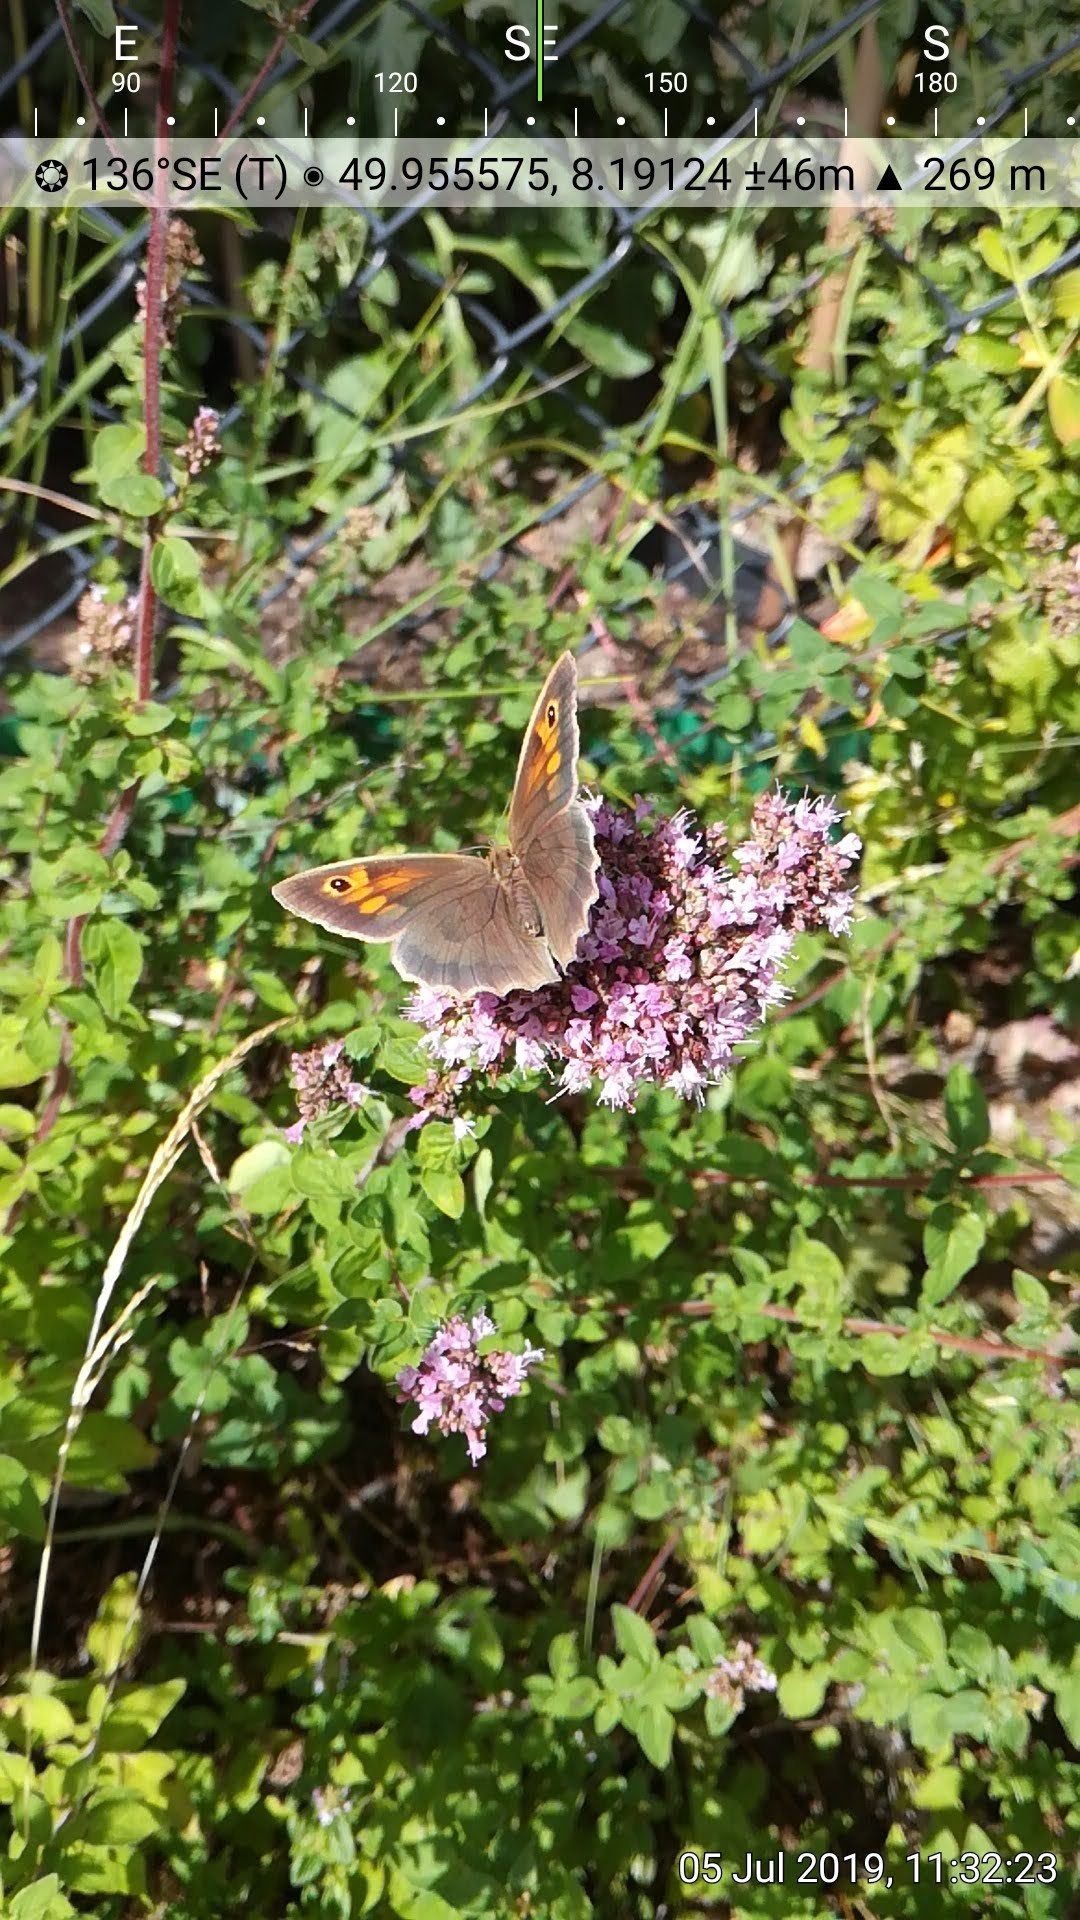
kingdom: Animalia
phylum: Arthropoda
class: Insecta
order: Lepidoptera
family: Nymphalidae
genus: Maniola
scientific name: Maniola jurtina
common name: Meadow brown
